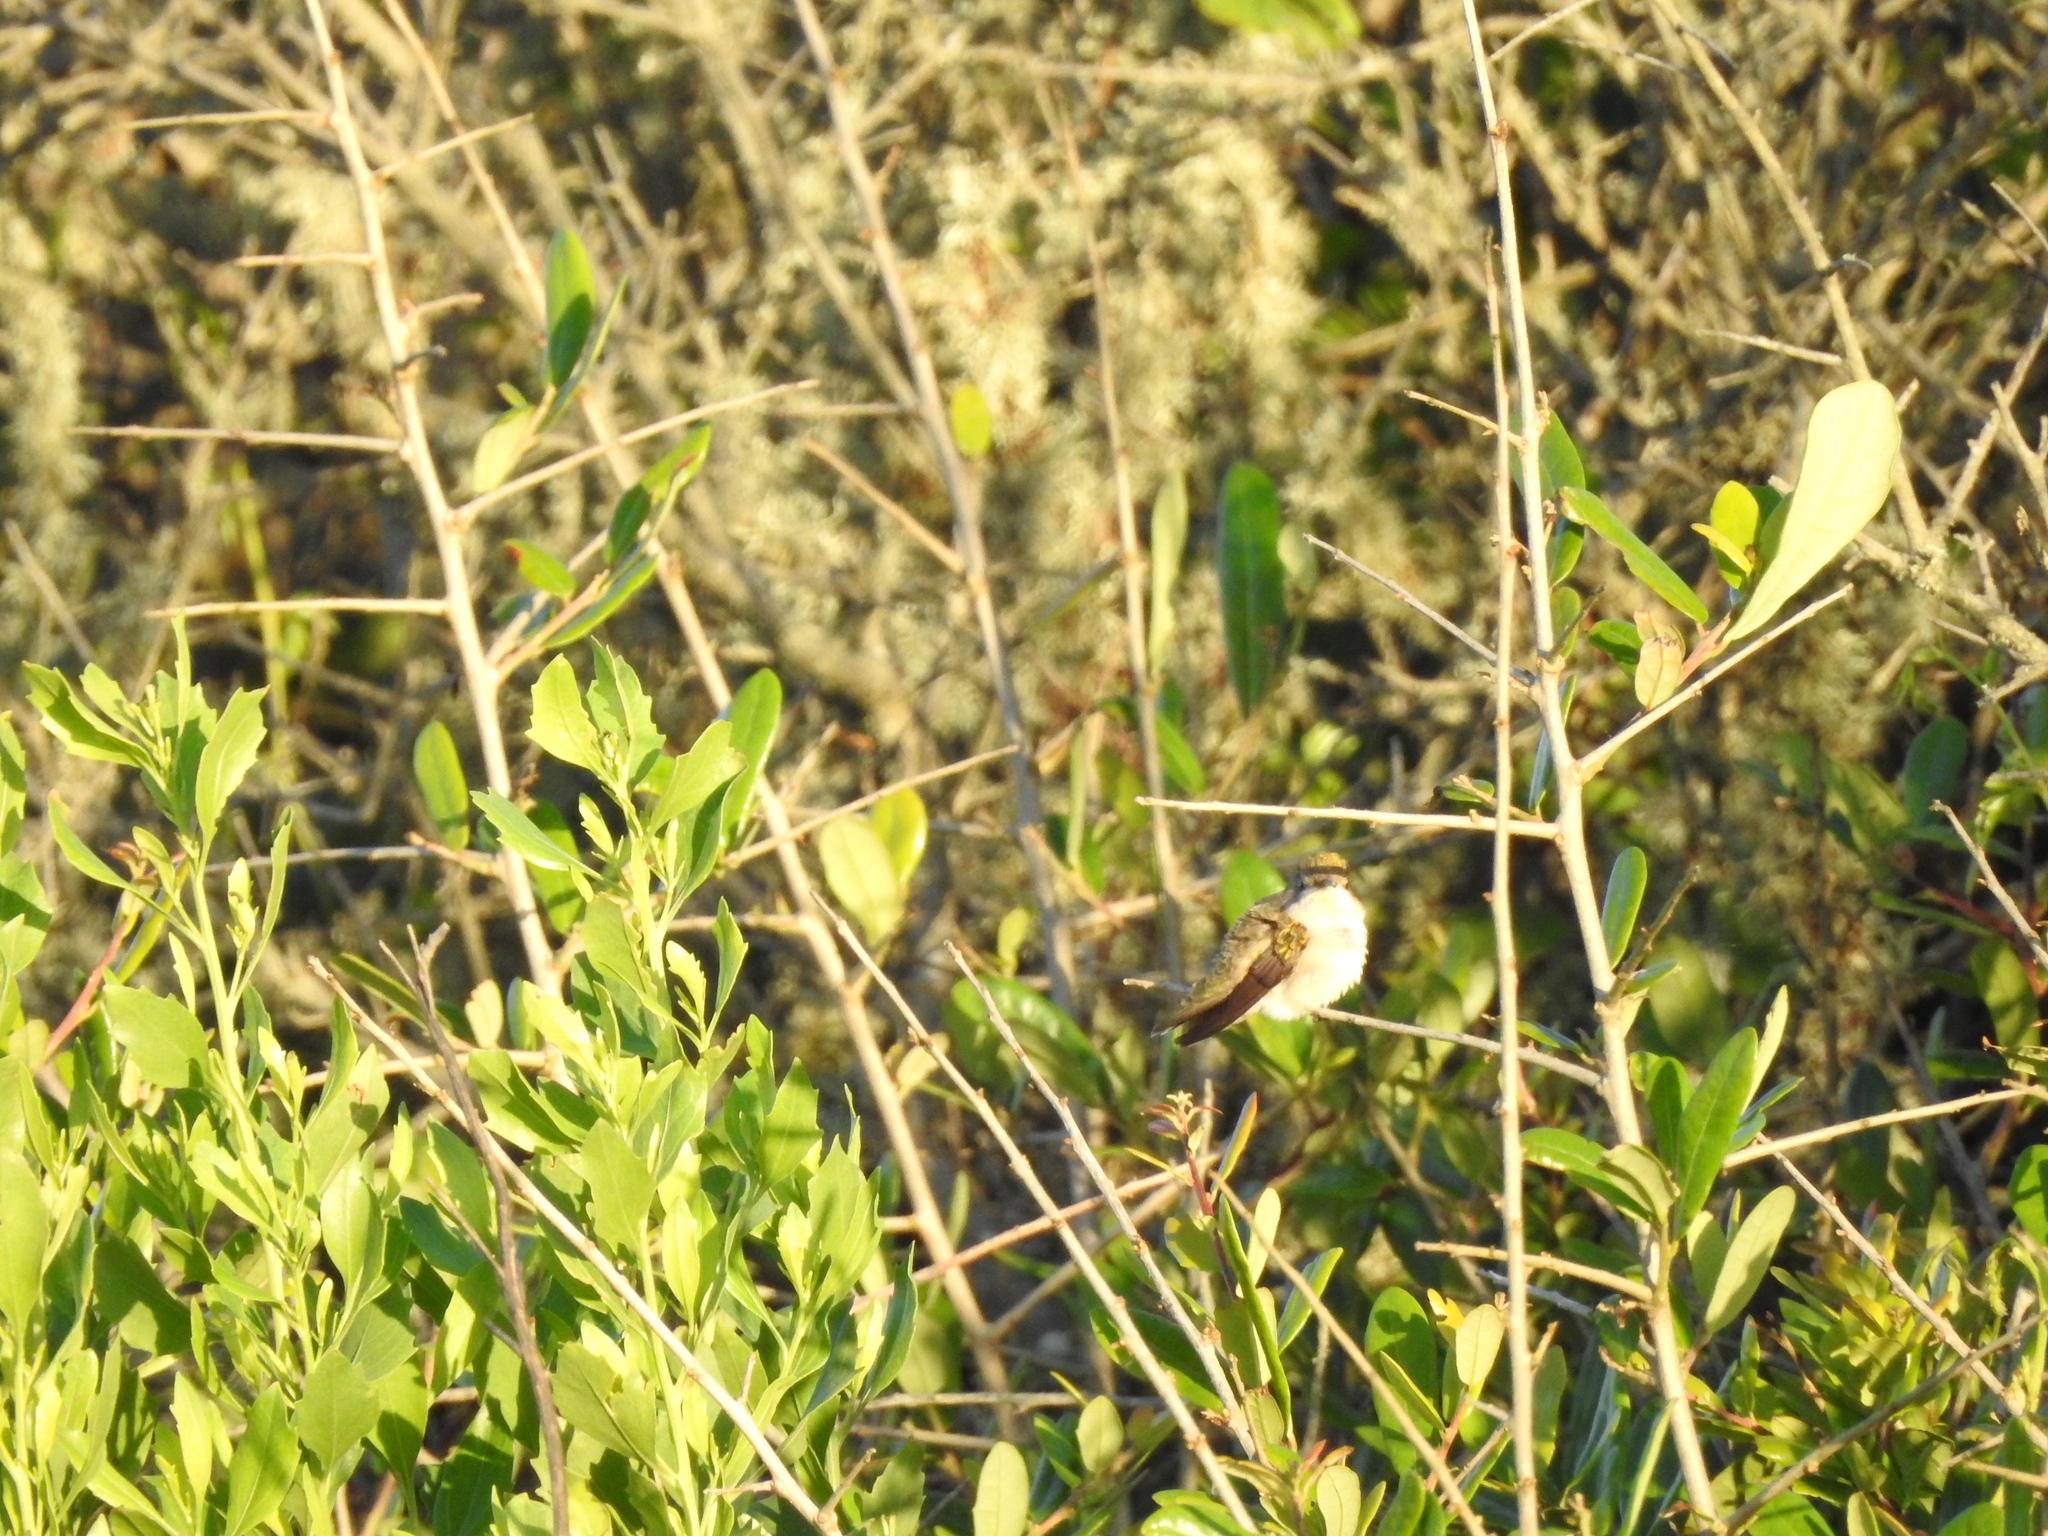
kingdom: Animalia
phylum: Chordata
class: Aves
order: Apodiformes
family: Trochilidae
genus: Archilochus
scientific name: Archilochus colubris
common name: Ruby-throated hummingbird
